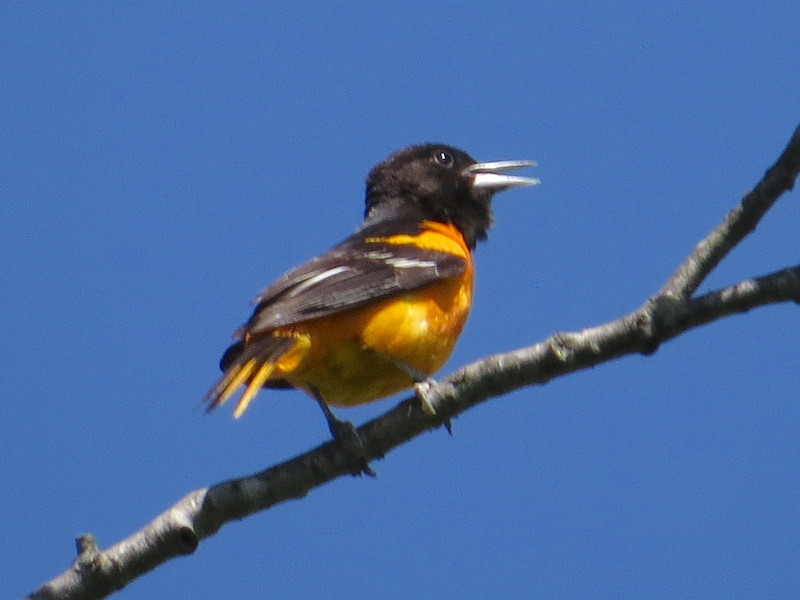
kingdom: Animalia
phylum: Chordata
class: Aves
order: Passeriformes
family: Icteridae
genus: Icterus
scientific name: Icterus galbula
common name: Baltimore oriole
